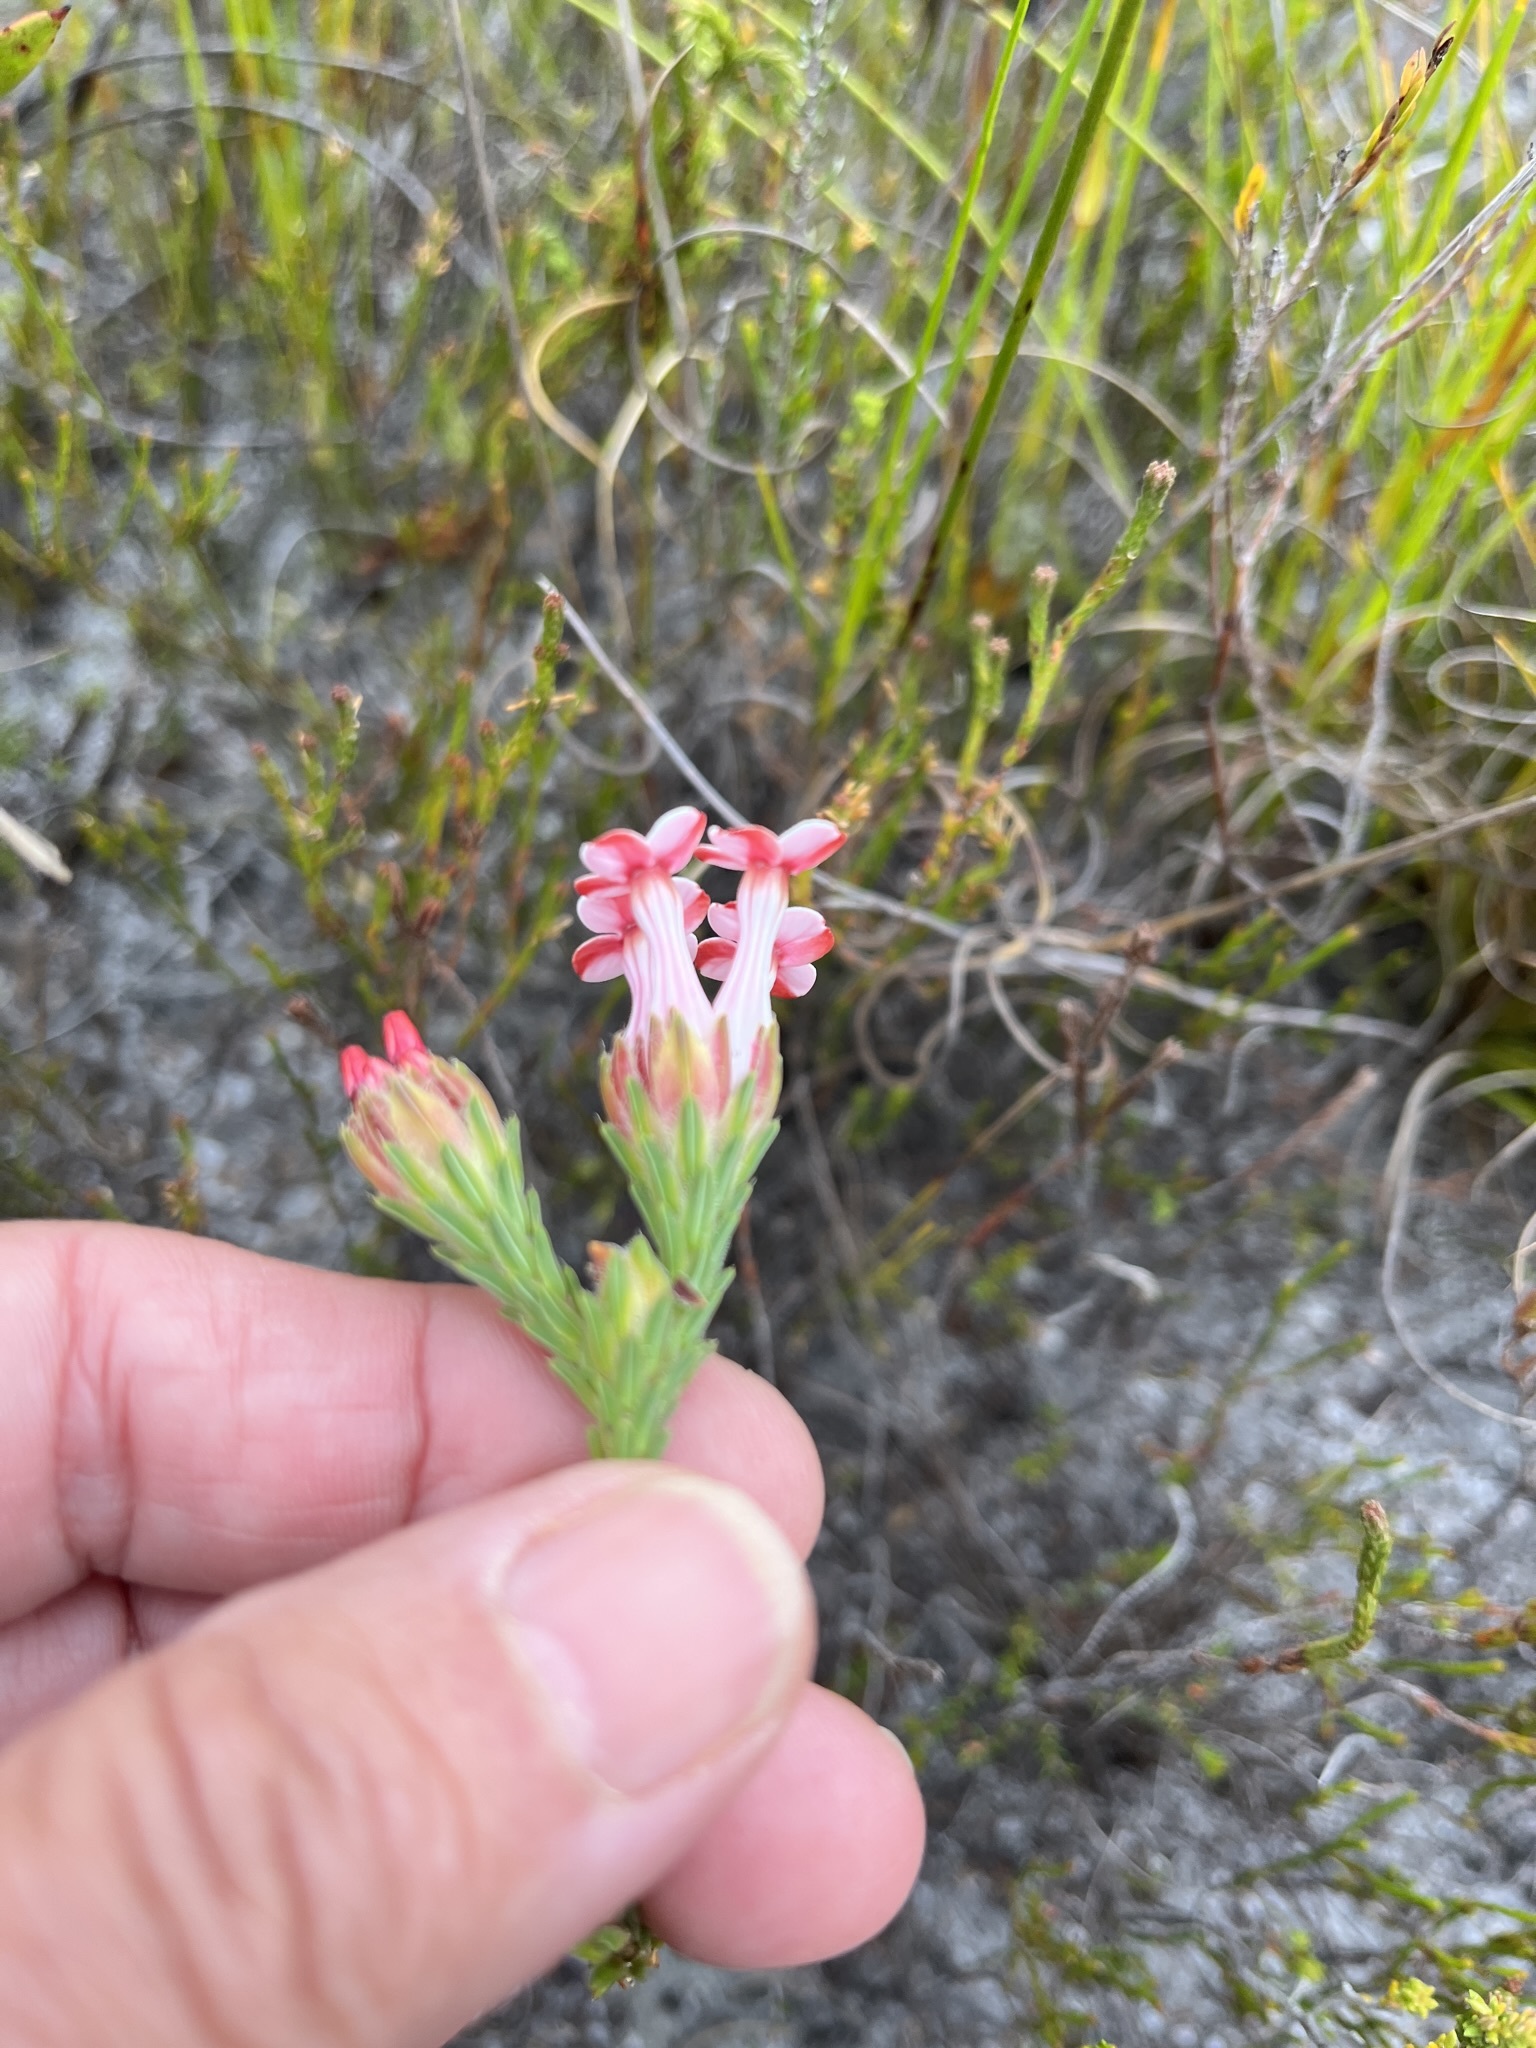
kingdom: Plantae
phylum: Tracheophyta
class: Magnoliopsida
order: Ericales
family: Ericaceae
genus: Erica
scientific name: Erica ampullacea
